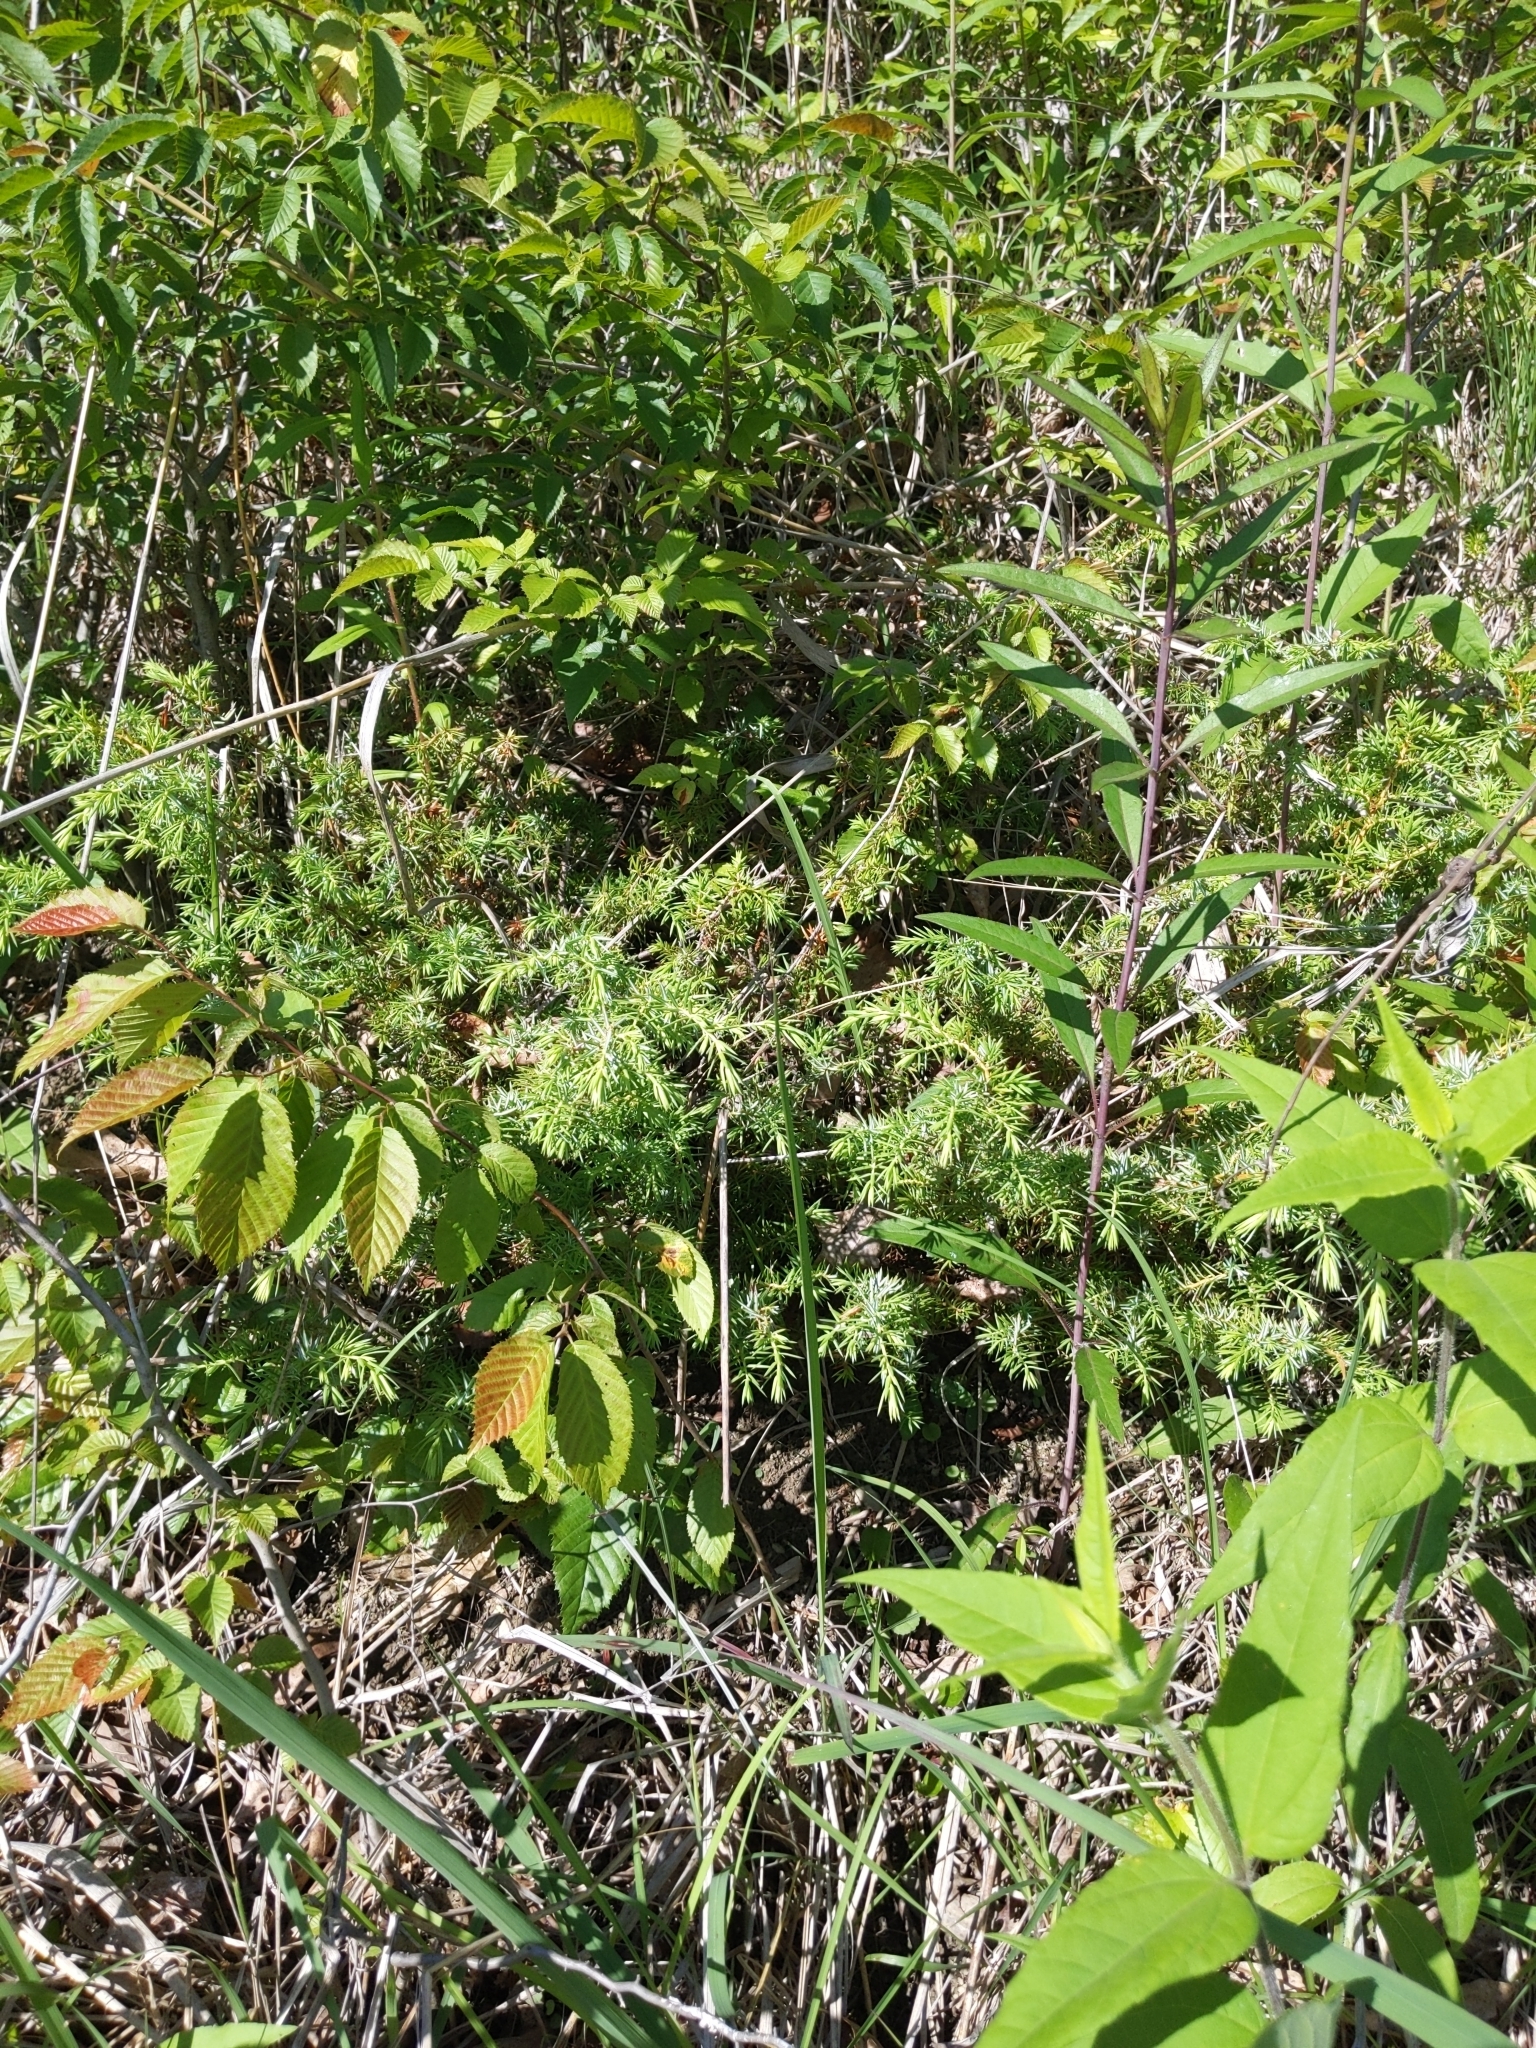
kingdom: Plantae
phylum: Tracheophyta
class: Pinopsida
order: Pinales
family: Cupressaceae
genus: Juniperus
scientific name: Juniperus communis
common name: Common juniper
